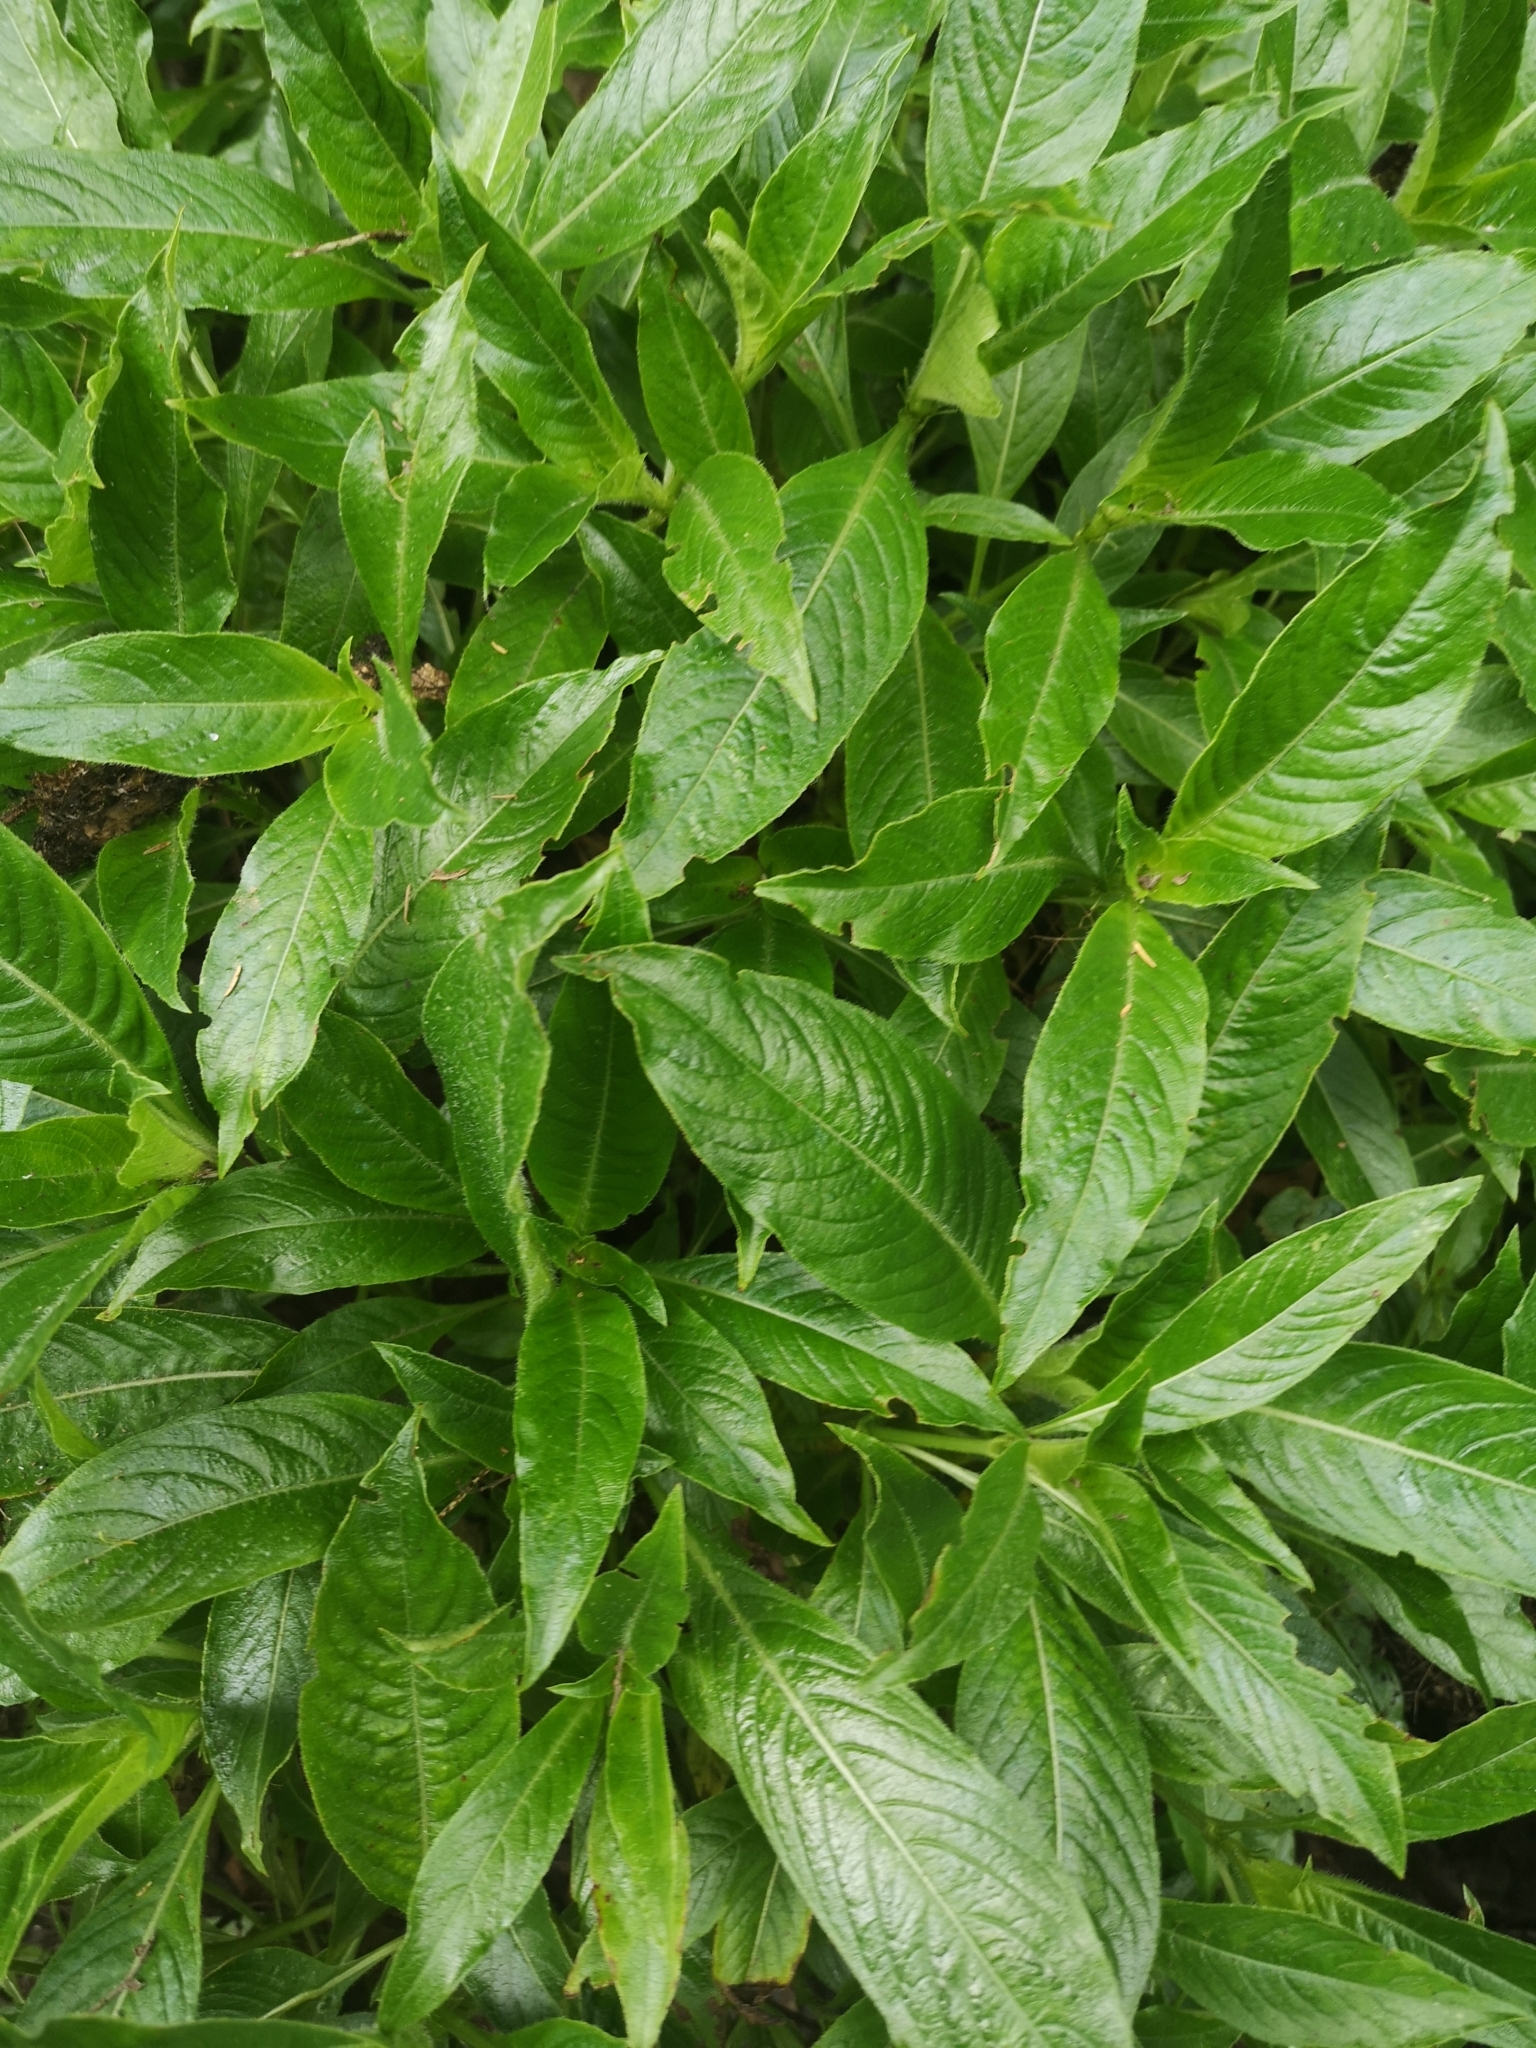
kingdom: Plantae
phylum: Tracheophyta
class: Magnoliopsida
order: Gentianales
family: Rubiaceae
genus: Phyllis
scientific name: Phyllis nobla
